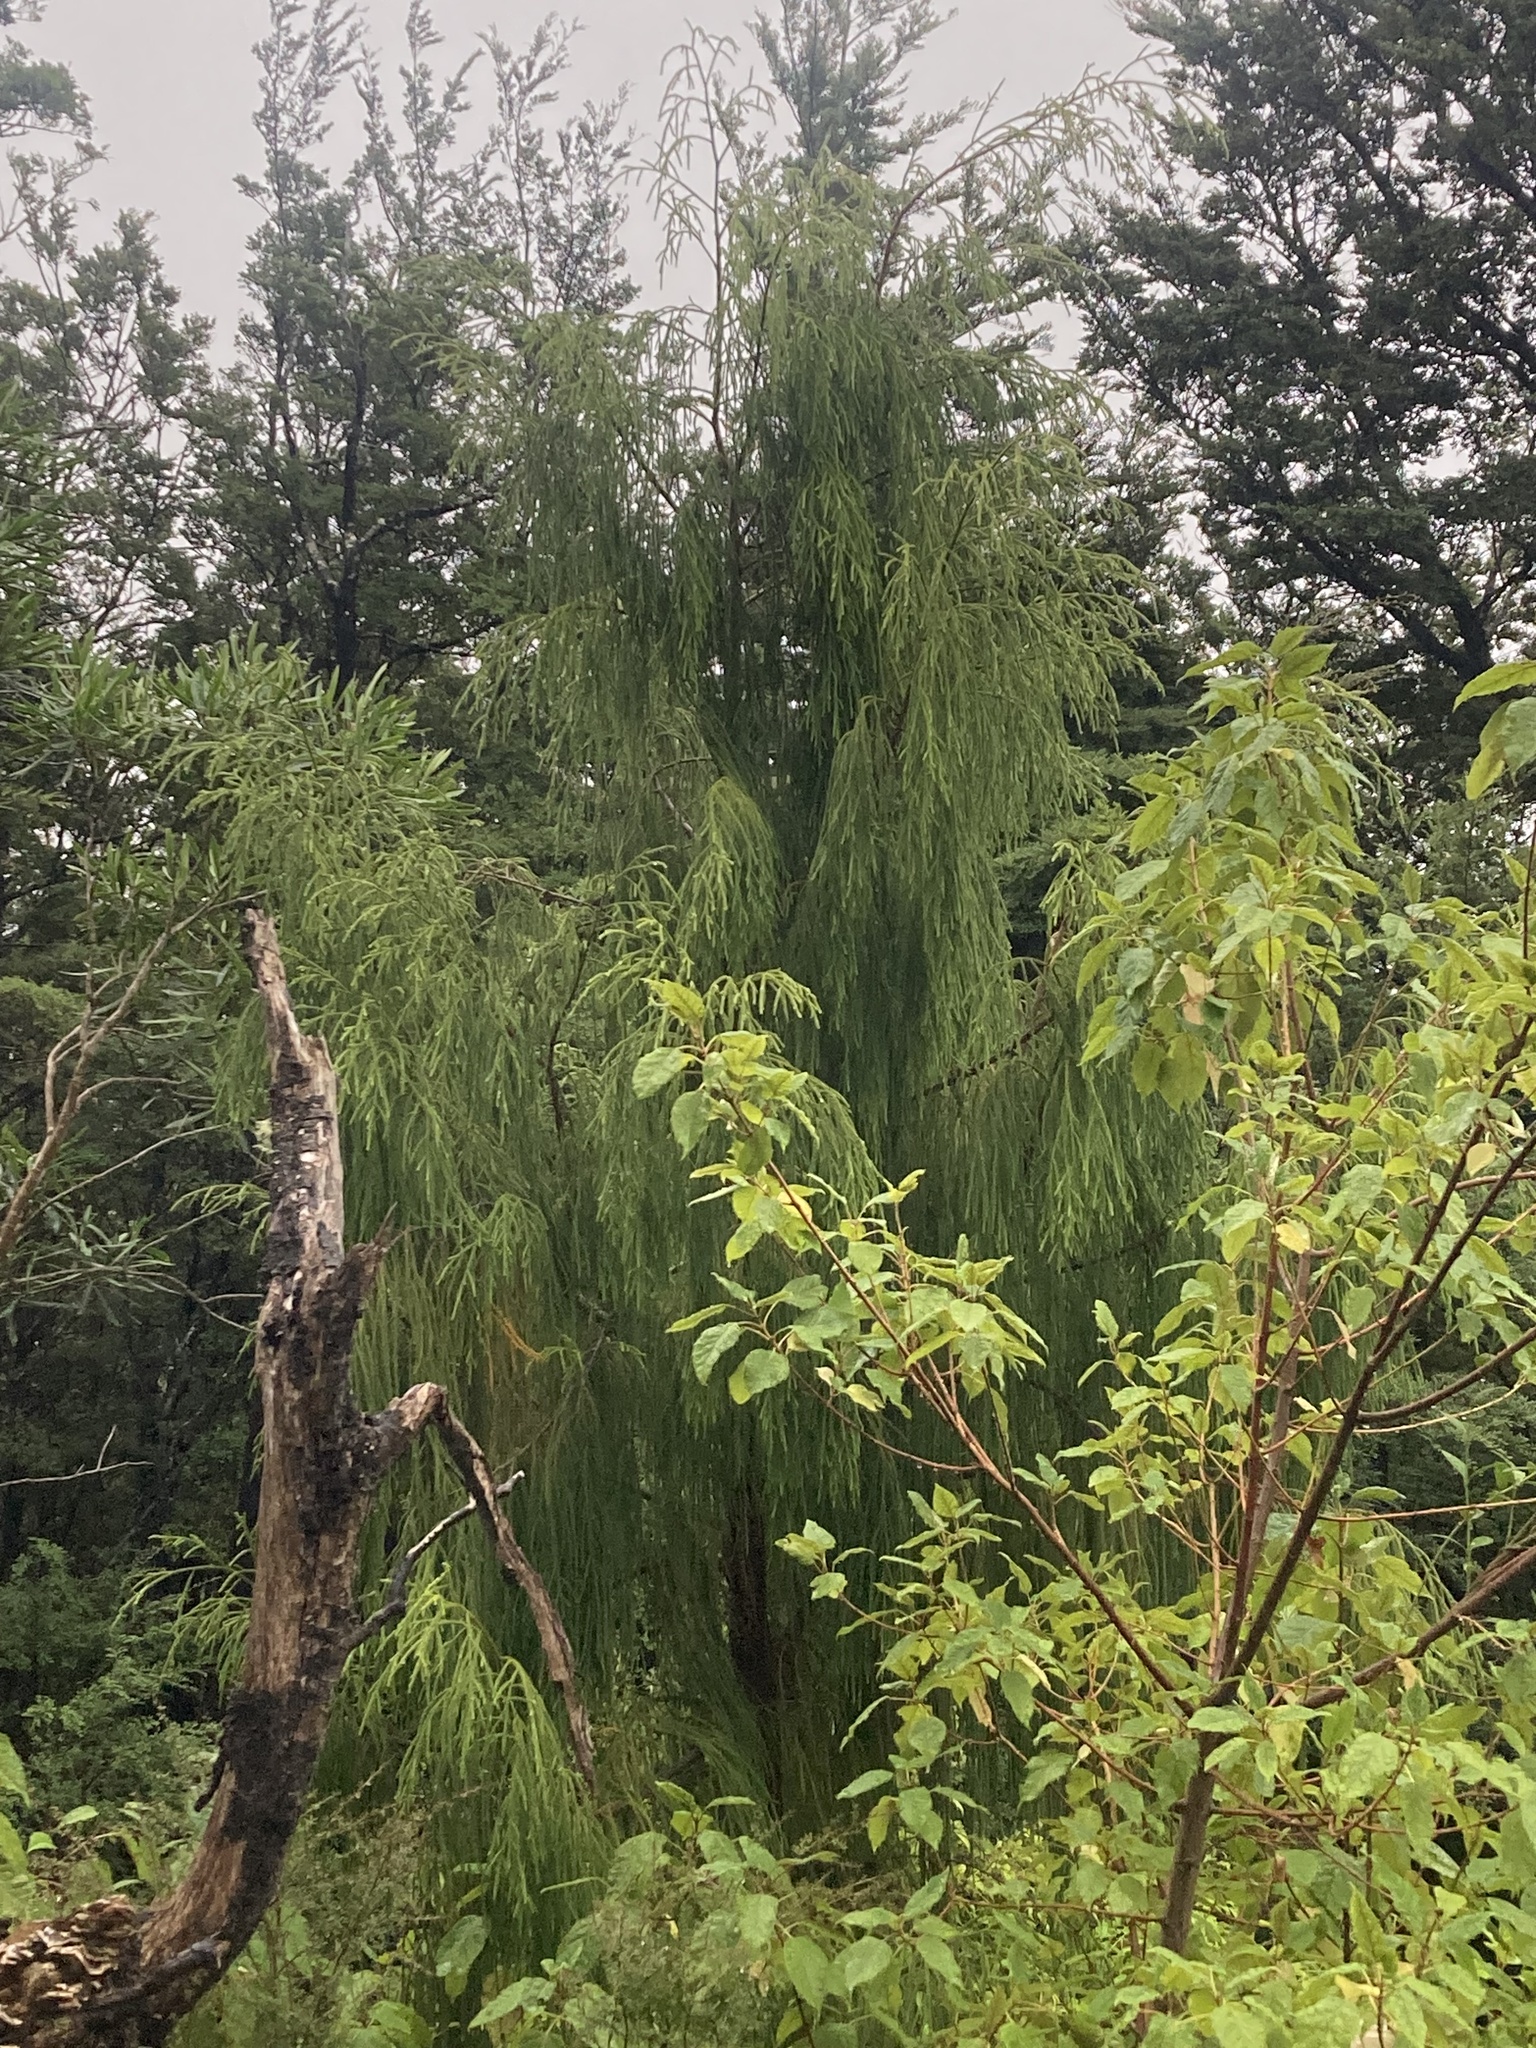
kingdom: Plantae
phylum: Tracheophyta
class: Pinopsida
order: Pinales
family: Podocarpaceae
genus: Dacrydium
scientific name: Dacrydium cupressinum
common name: Red pine
